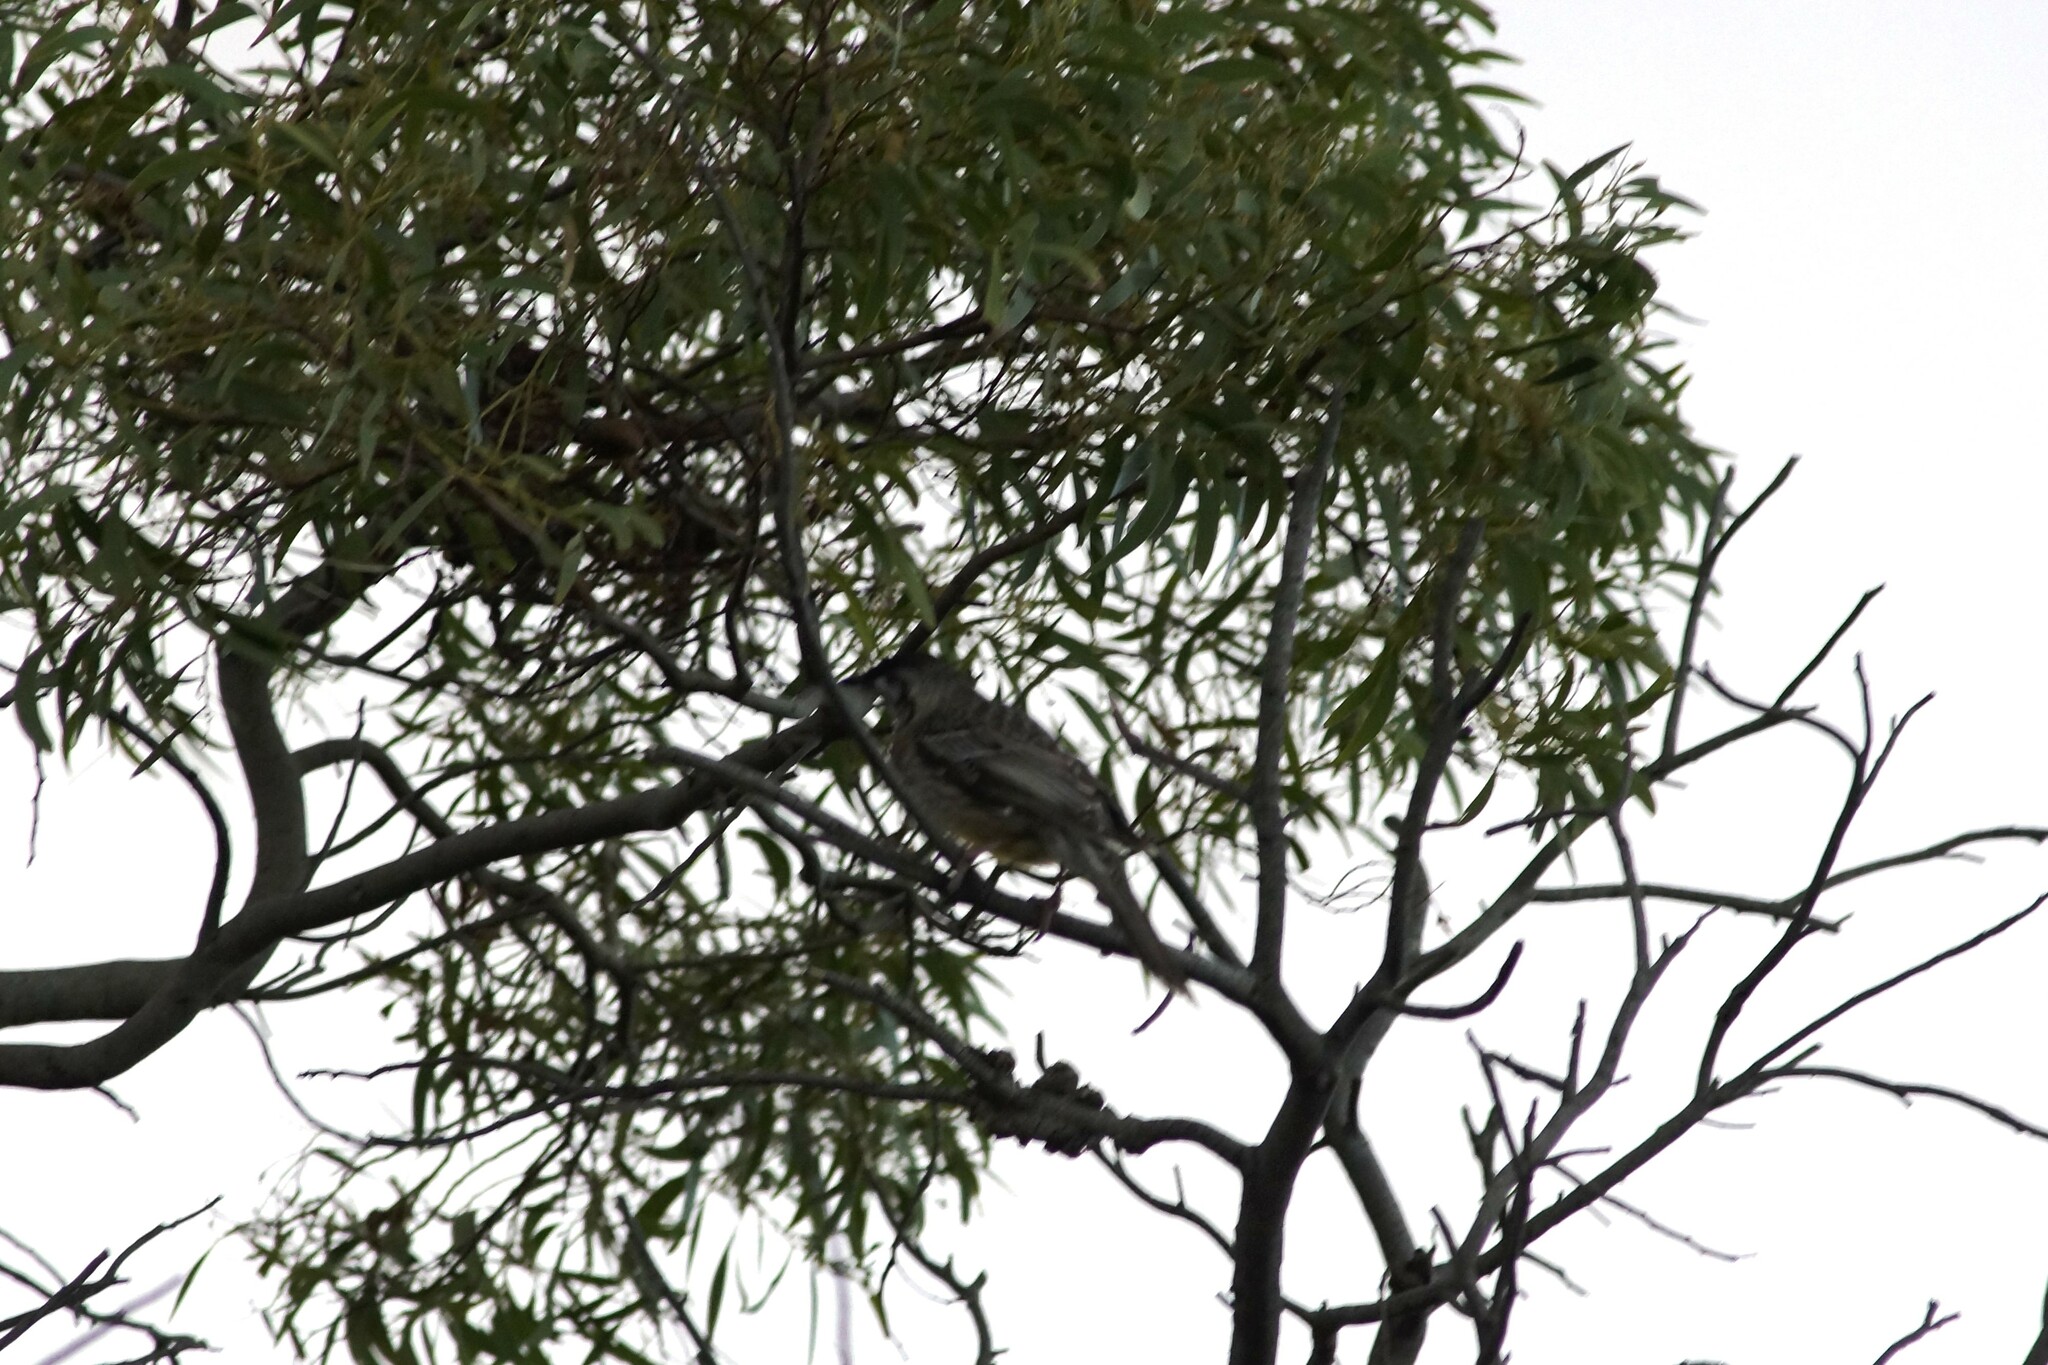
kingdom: Animalia
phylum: Chordata
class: Aves
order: Passeriformes
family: Meliphagidae
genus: Anthochaera
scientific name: Anthochaera carunculata
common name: Red wattlebird
